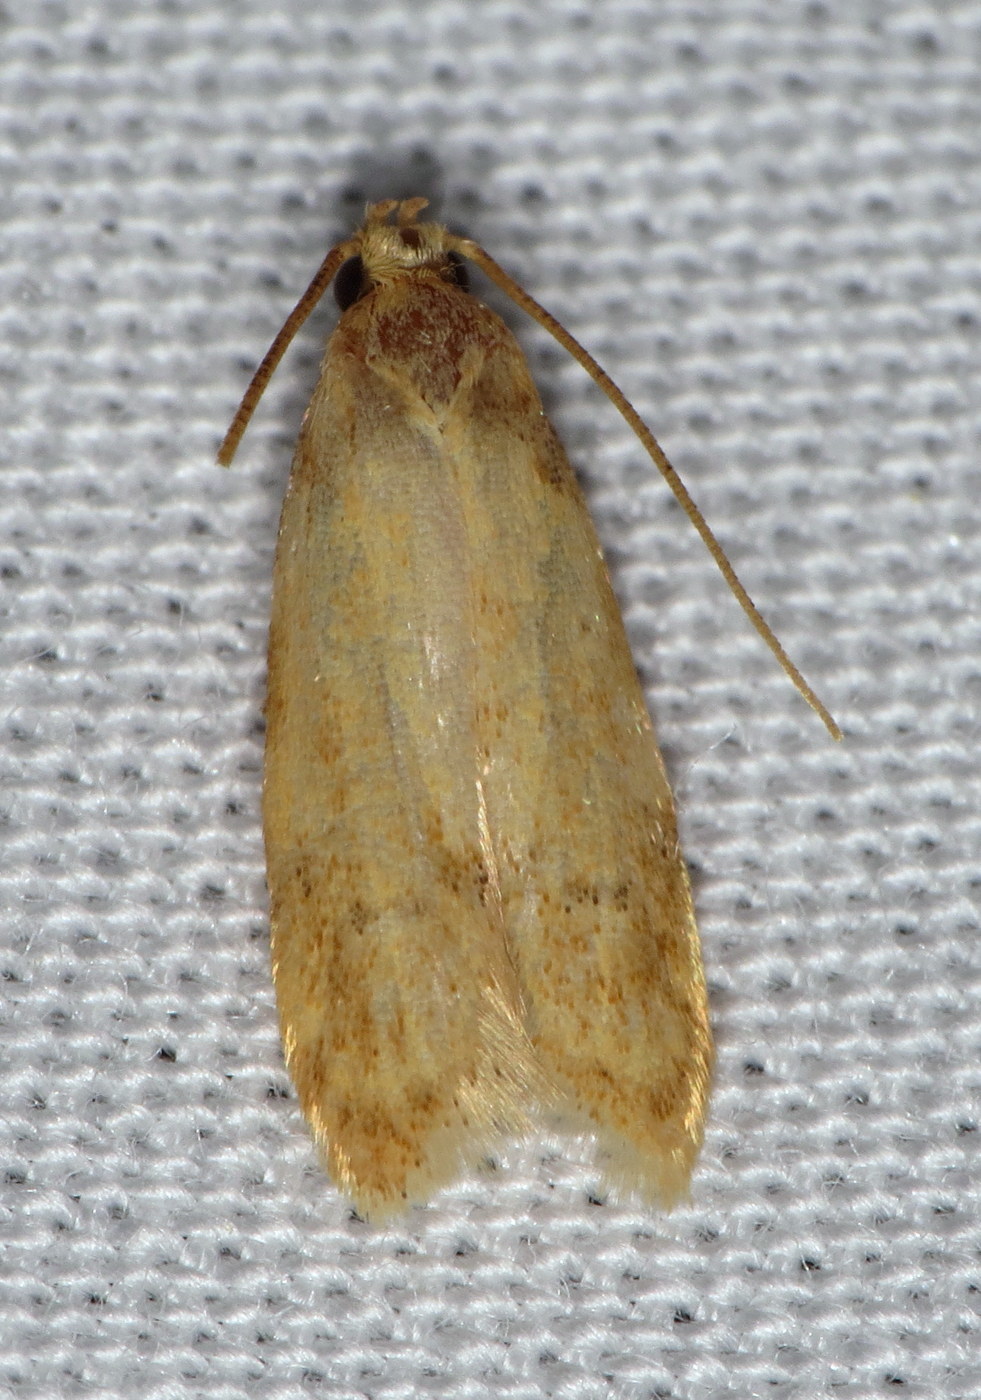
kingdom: Animalia
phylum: Arthropoda
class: Insecta
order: Lepidoptera
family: Autostichidae
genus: Gerdana
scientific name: Gerdana caritella
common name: Gerdana moth
